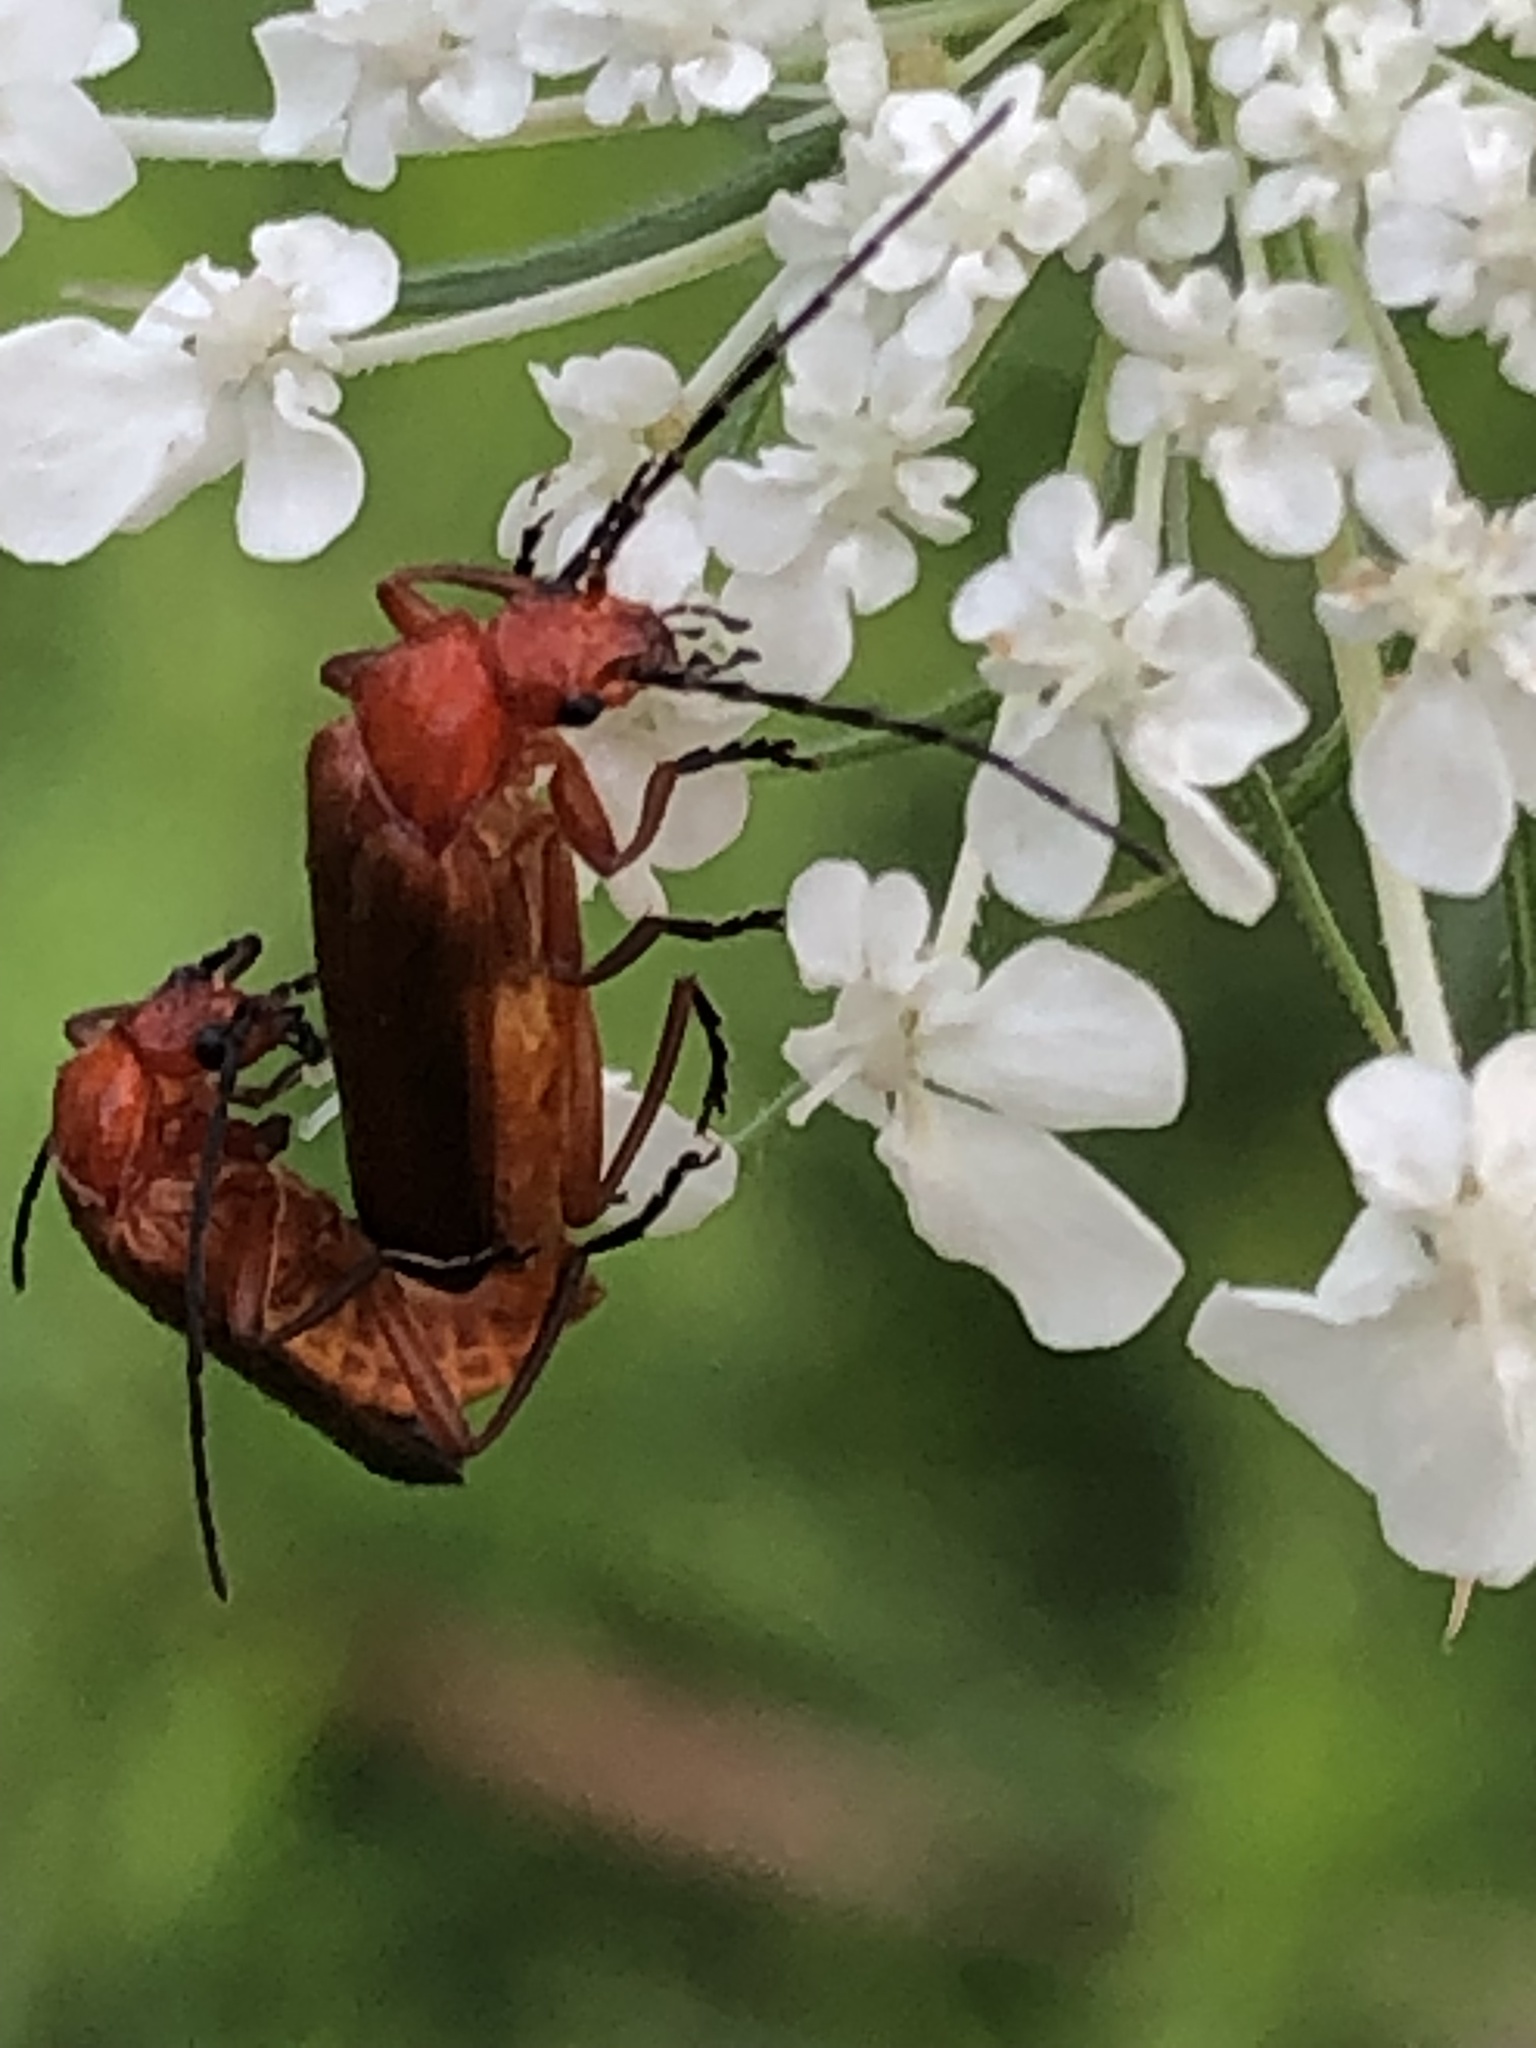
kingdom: Animalia
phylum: Arthropoda
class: Insecta
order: Coleoptera
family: Cantharidae
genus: Rhagonycha
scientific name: Rhagonycha fulva
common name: Common red soldier beetle
